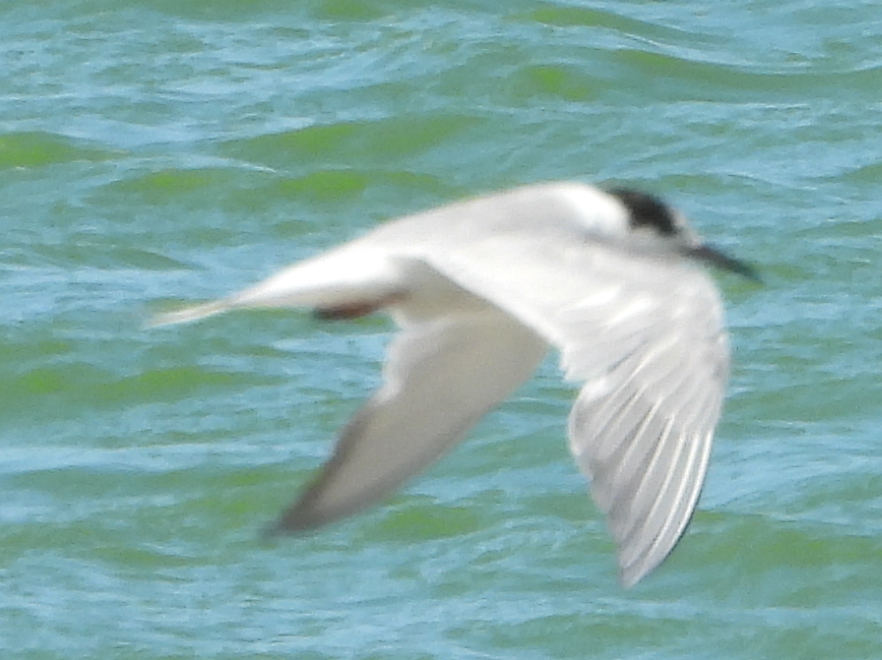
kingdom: Animalia
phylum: Chordata
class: Aves
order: Charadriiformes
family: Laridae
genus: Sterna
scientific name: Sterna hirundo
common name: Common tern
